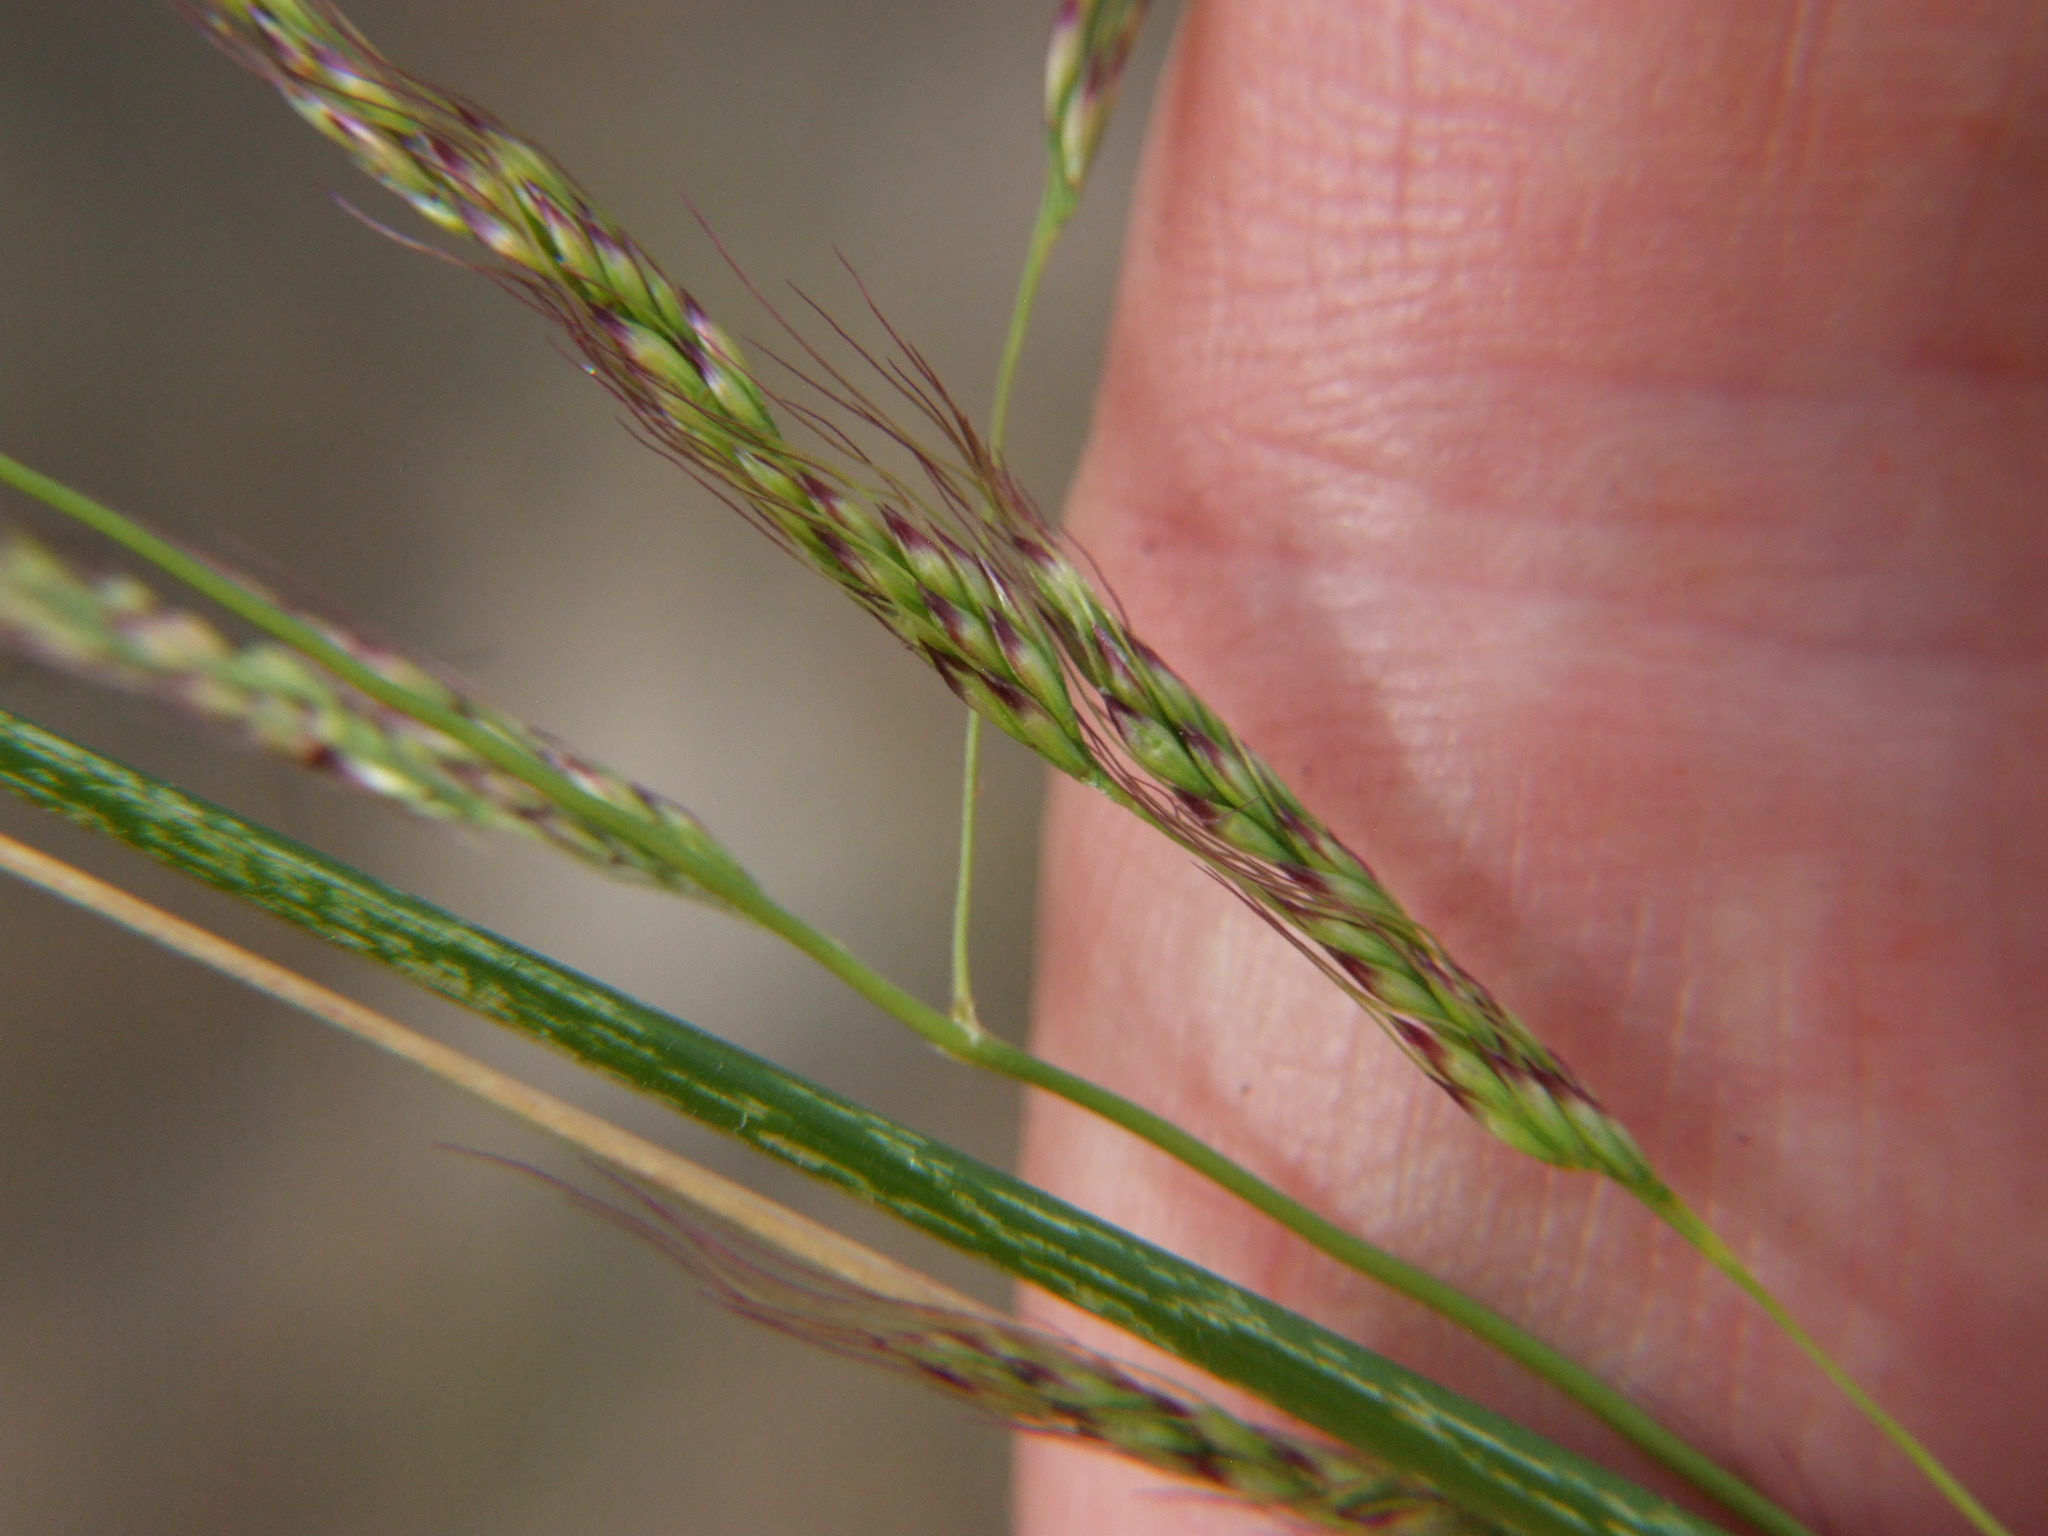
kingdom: Plantae
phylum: Tracheophyta
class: Liliopsida
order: Poales
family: Poaceae
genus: Nassella
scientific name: Nassella pubiflora
